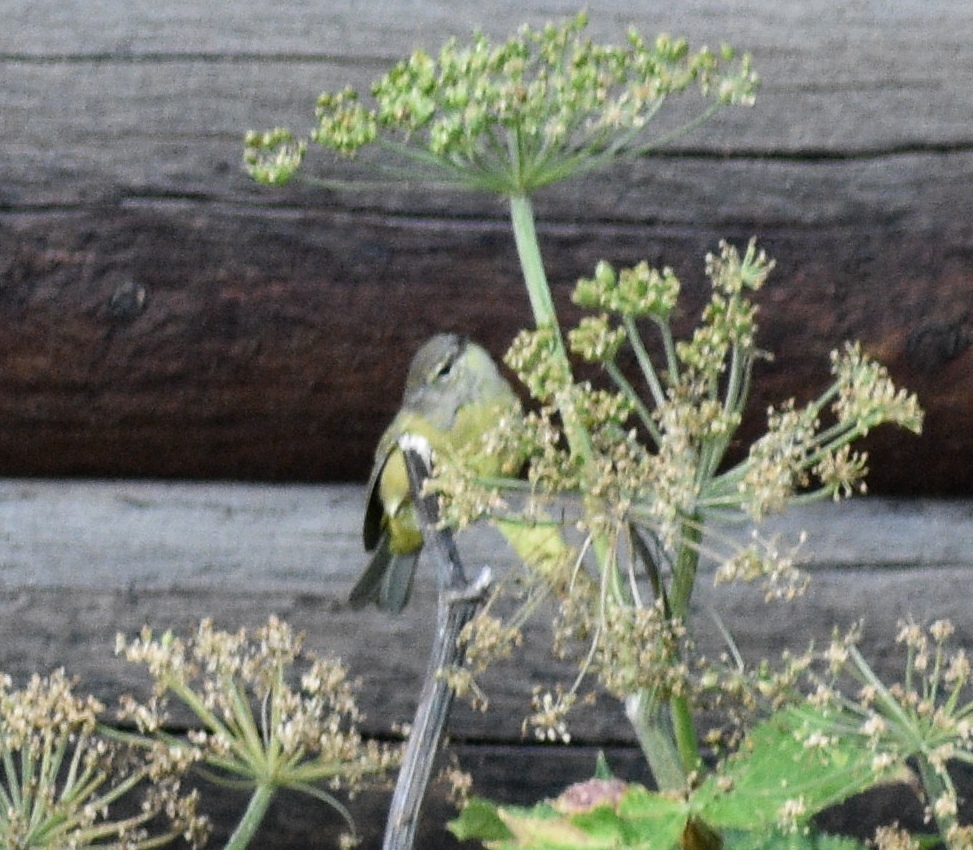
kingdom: Animalia
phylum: Chordata
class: Aves
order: Passeriformes
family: Parulidae
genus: Leiothlypis
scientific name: Leiothlypis celata
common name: Orange-crowned warbler
